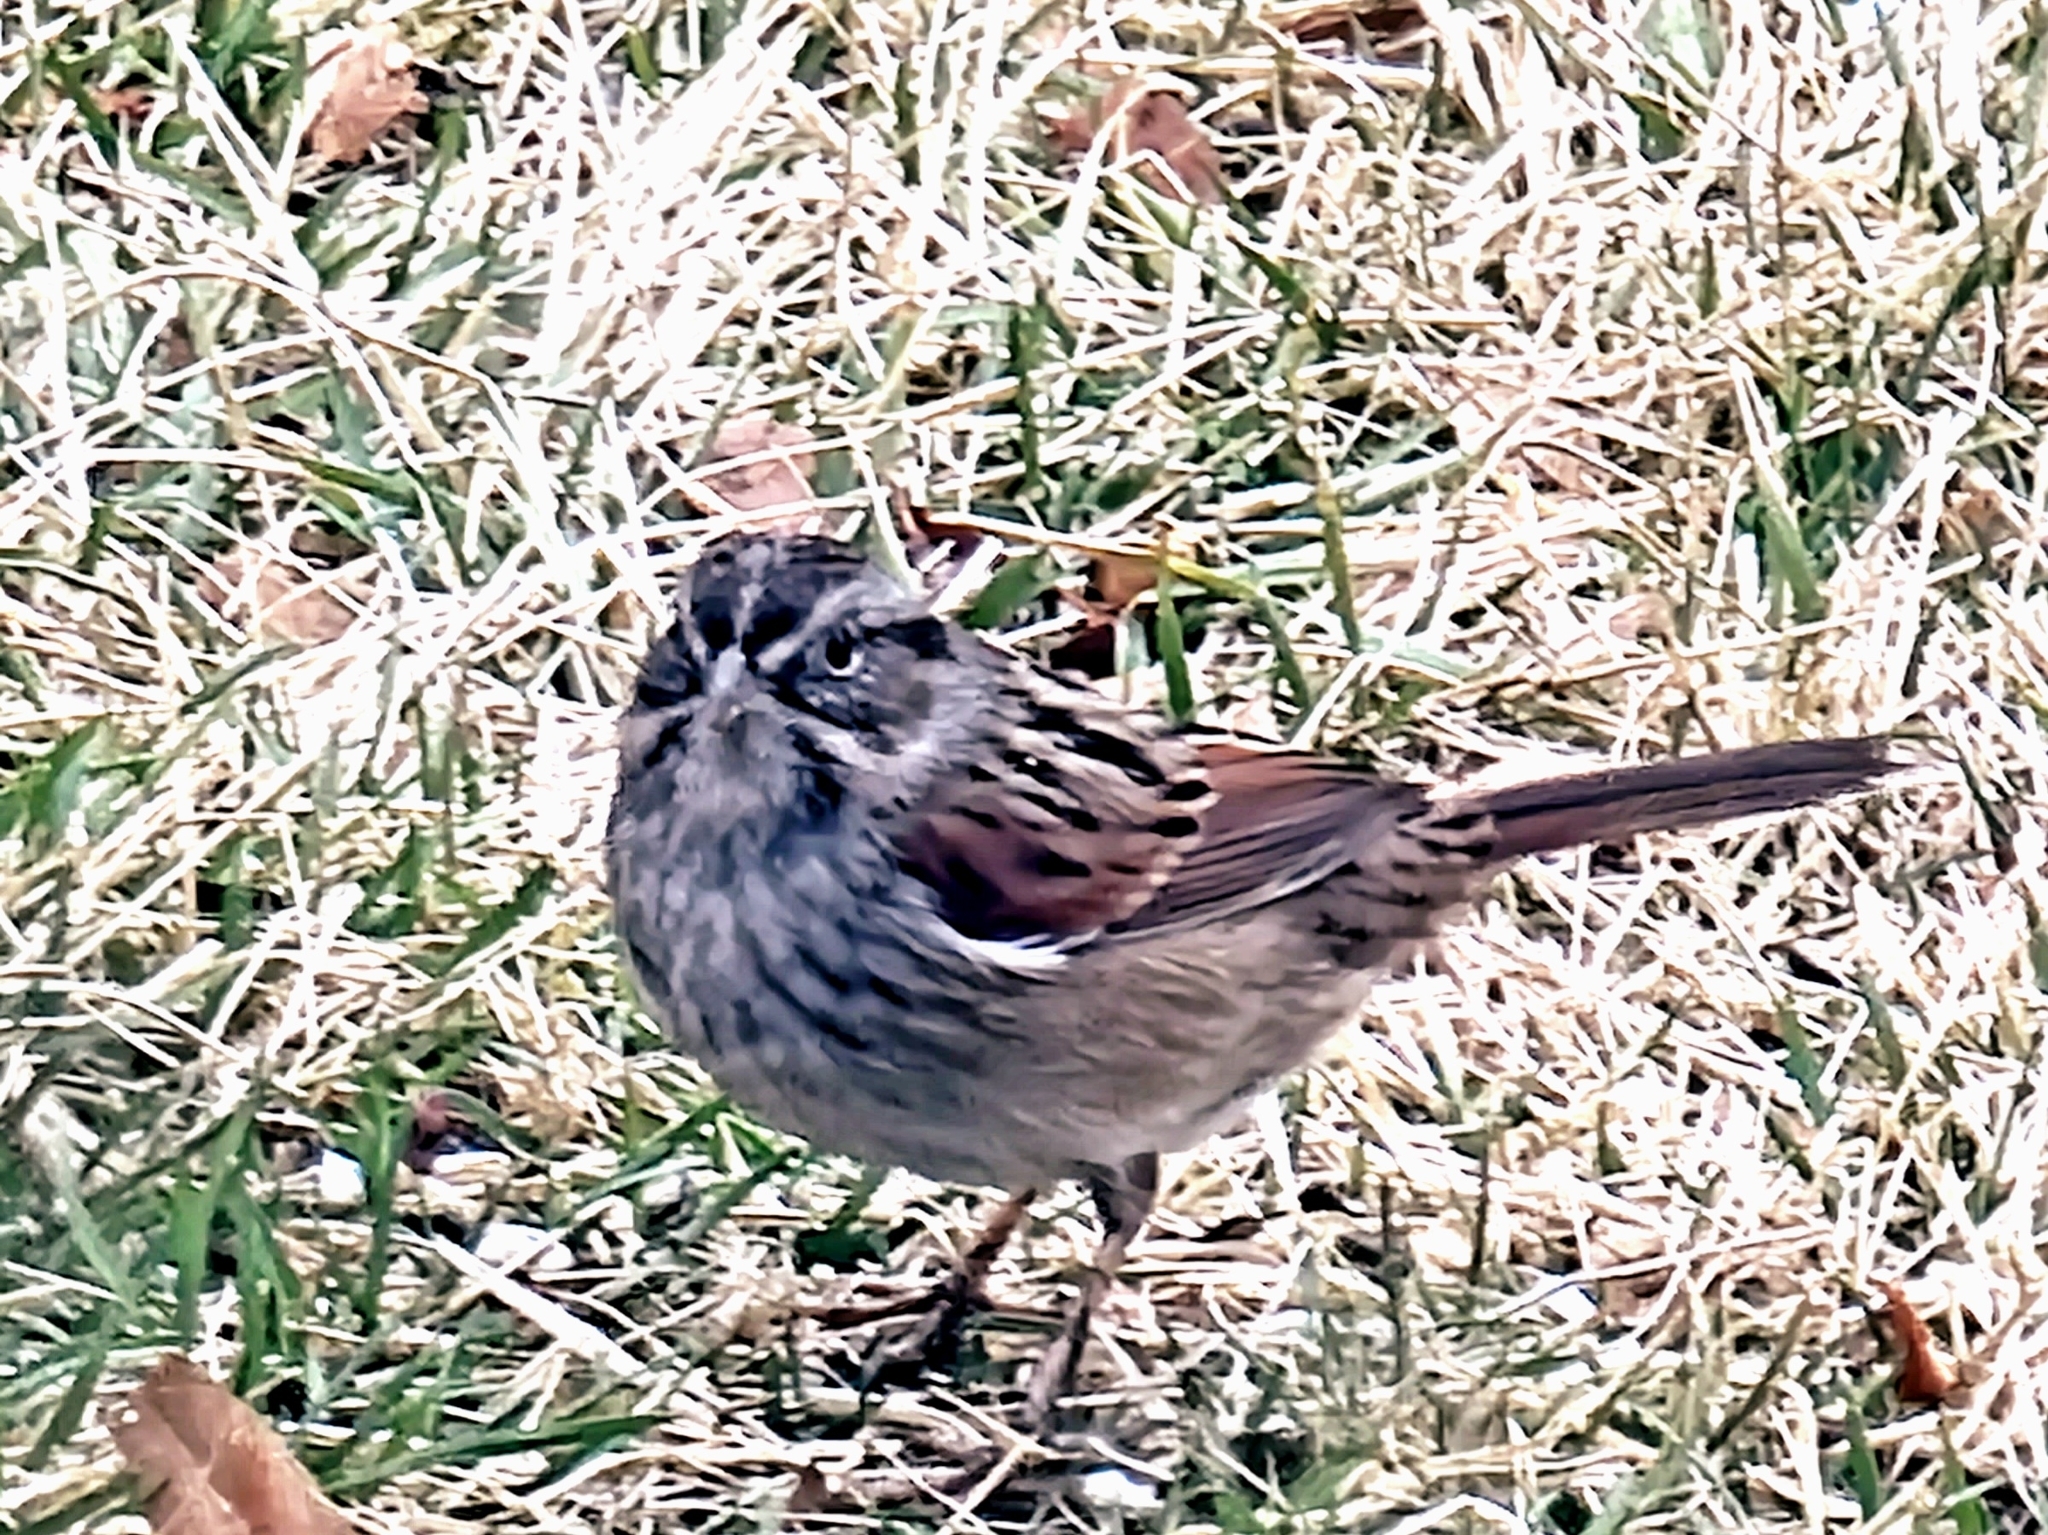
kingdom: Animalia
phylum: Chordata
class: Aves
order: Passeriformes
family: Passerellidae
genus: Melospiza
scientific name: Melospiza georgiana
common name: Swamp sparrow
